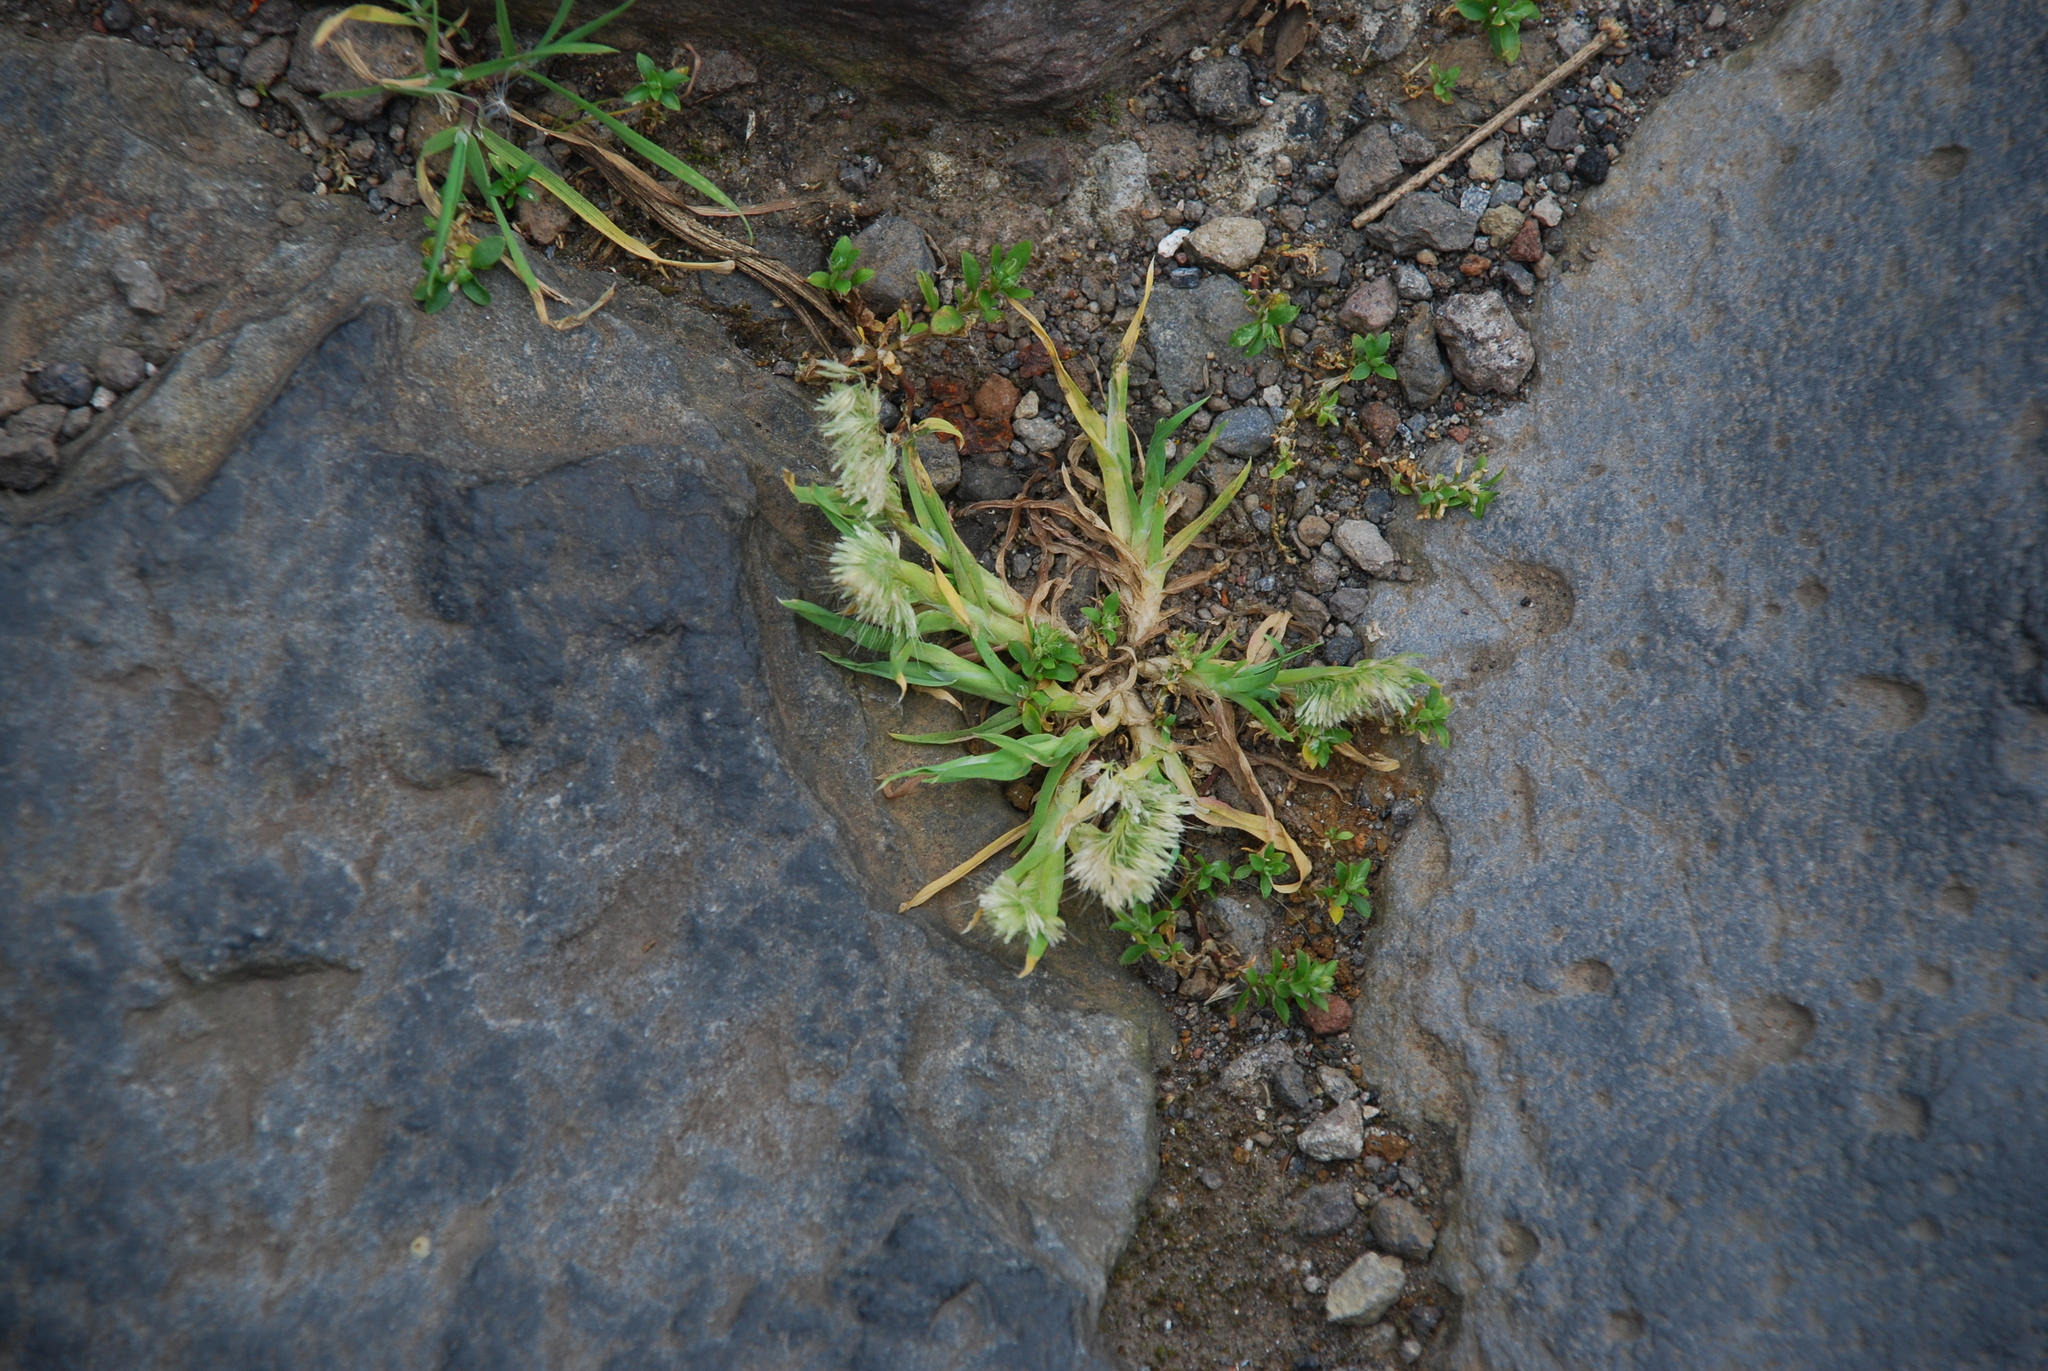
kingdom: Plantae
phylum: Tracheophyta
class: Liliopsida
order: Poales
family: Poaceae
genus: Lamarckia
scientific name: Lamarckia aurea
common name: Golden dog's-tail
